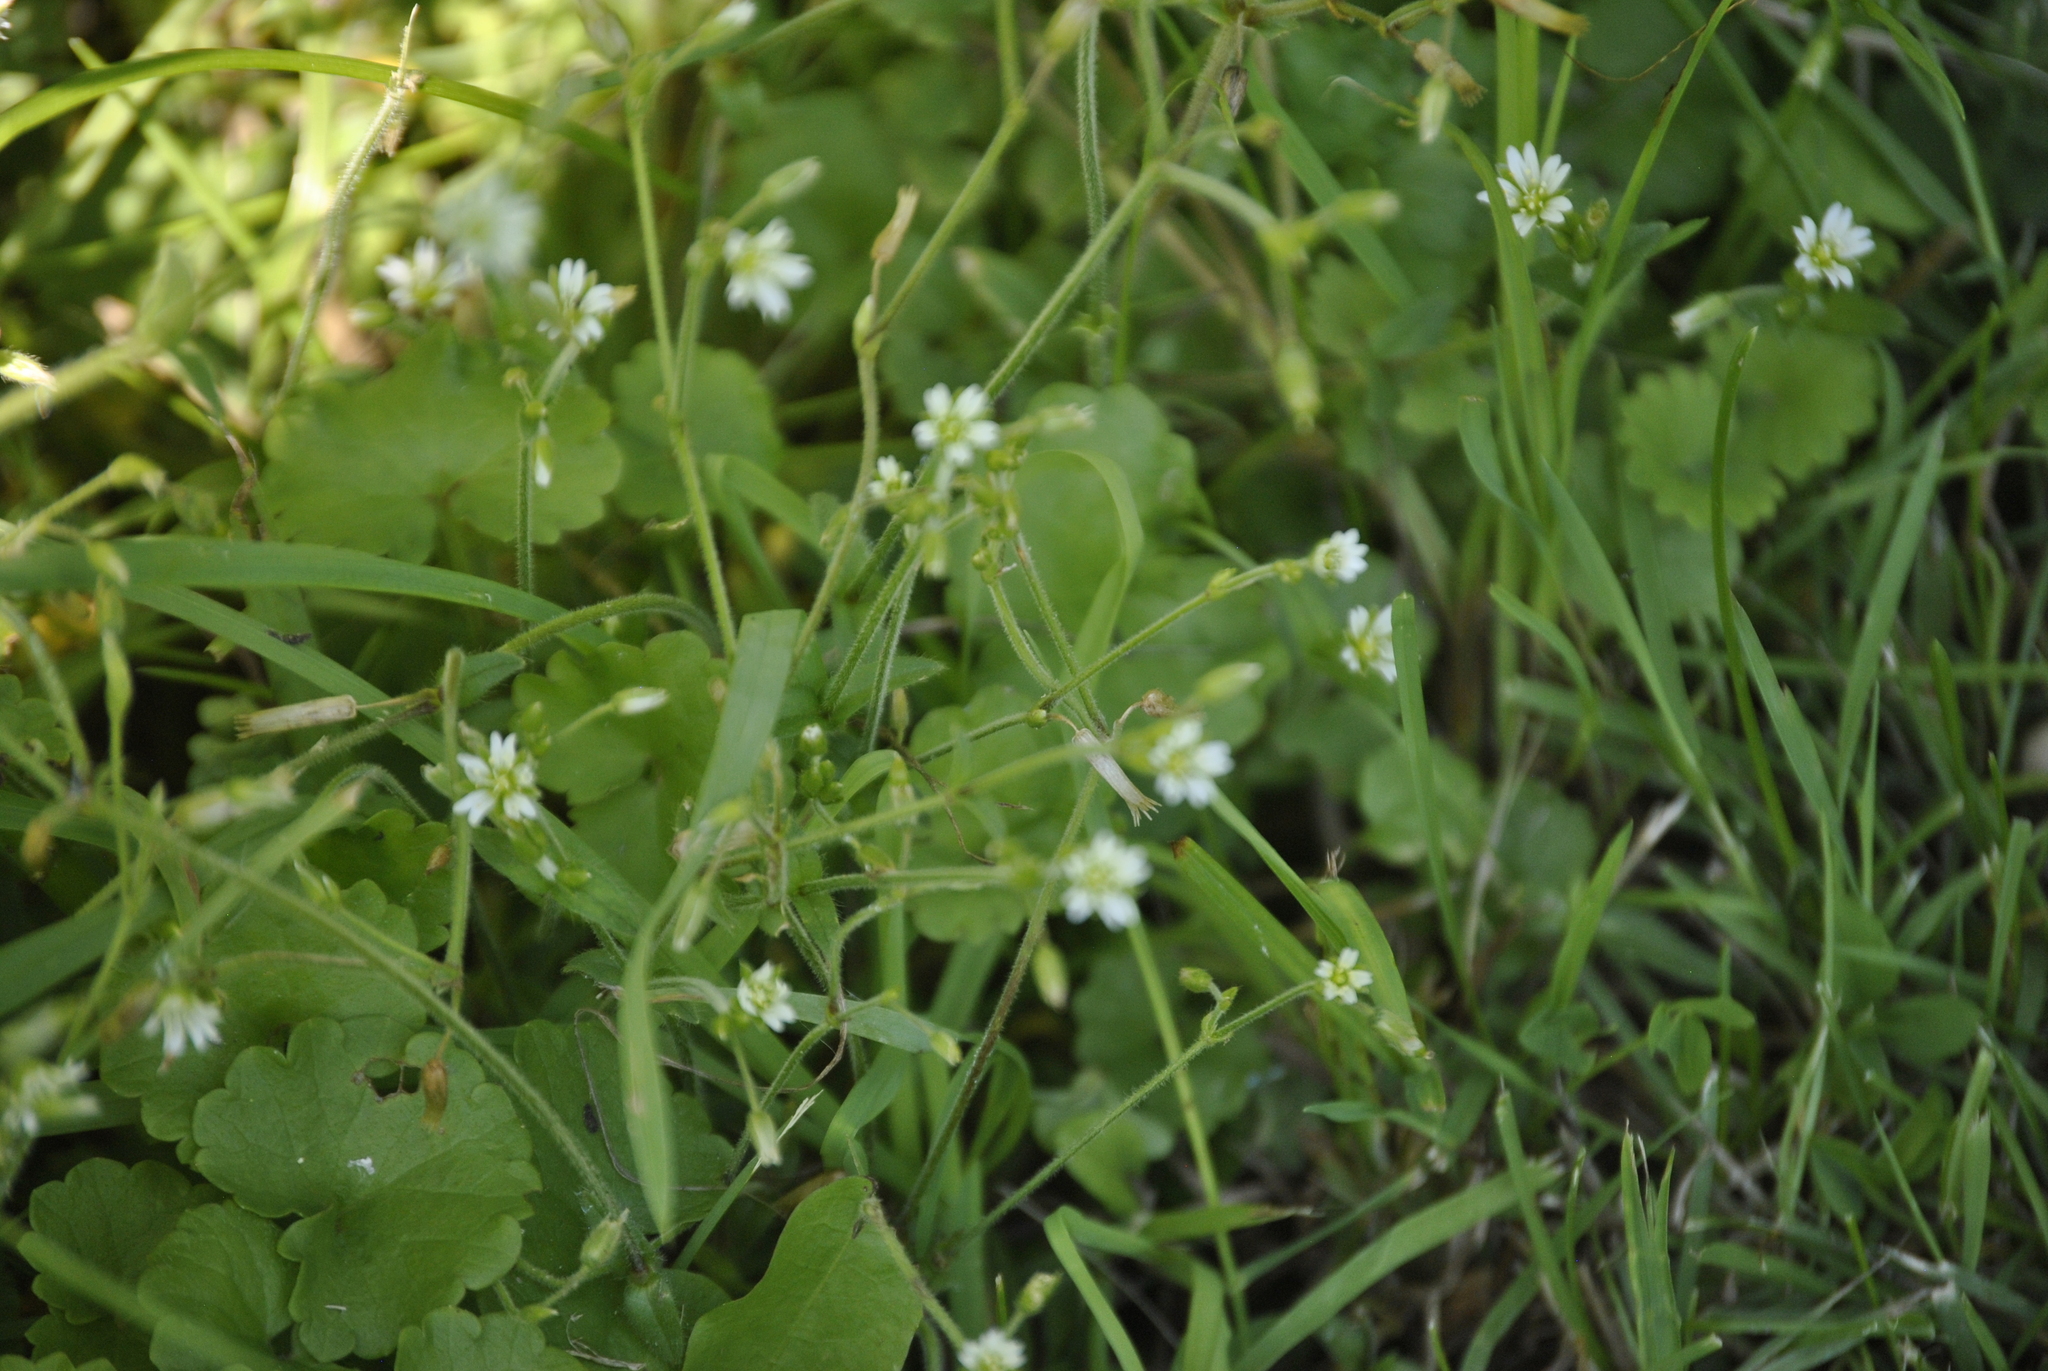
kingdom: Plantae
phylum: Tracheophyta
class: Magnoliopsida
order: Caryophyllales
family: Caryophyllaceae
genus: Cerastium
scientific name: Cerastium fontanum
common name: Common mouse-ear
